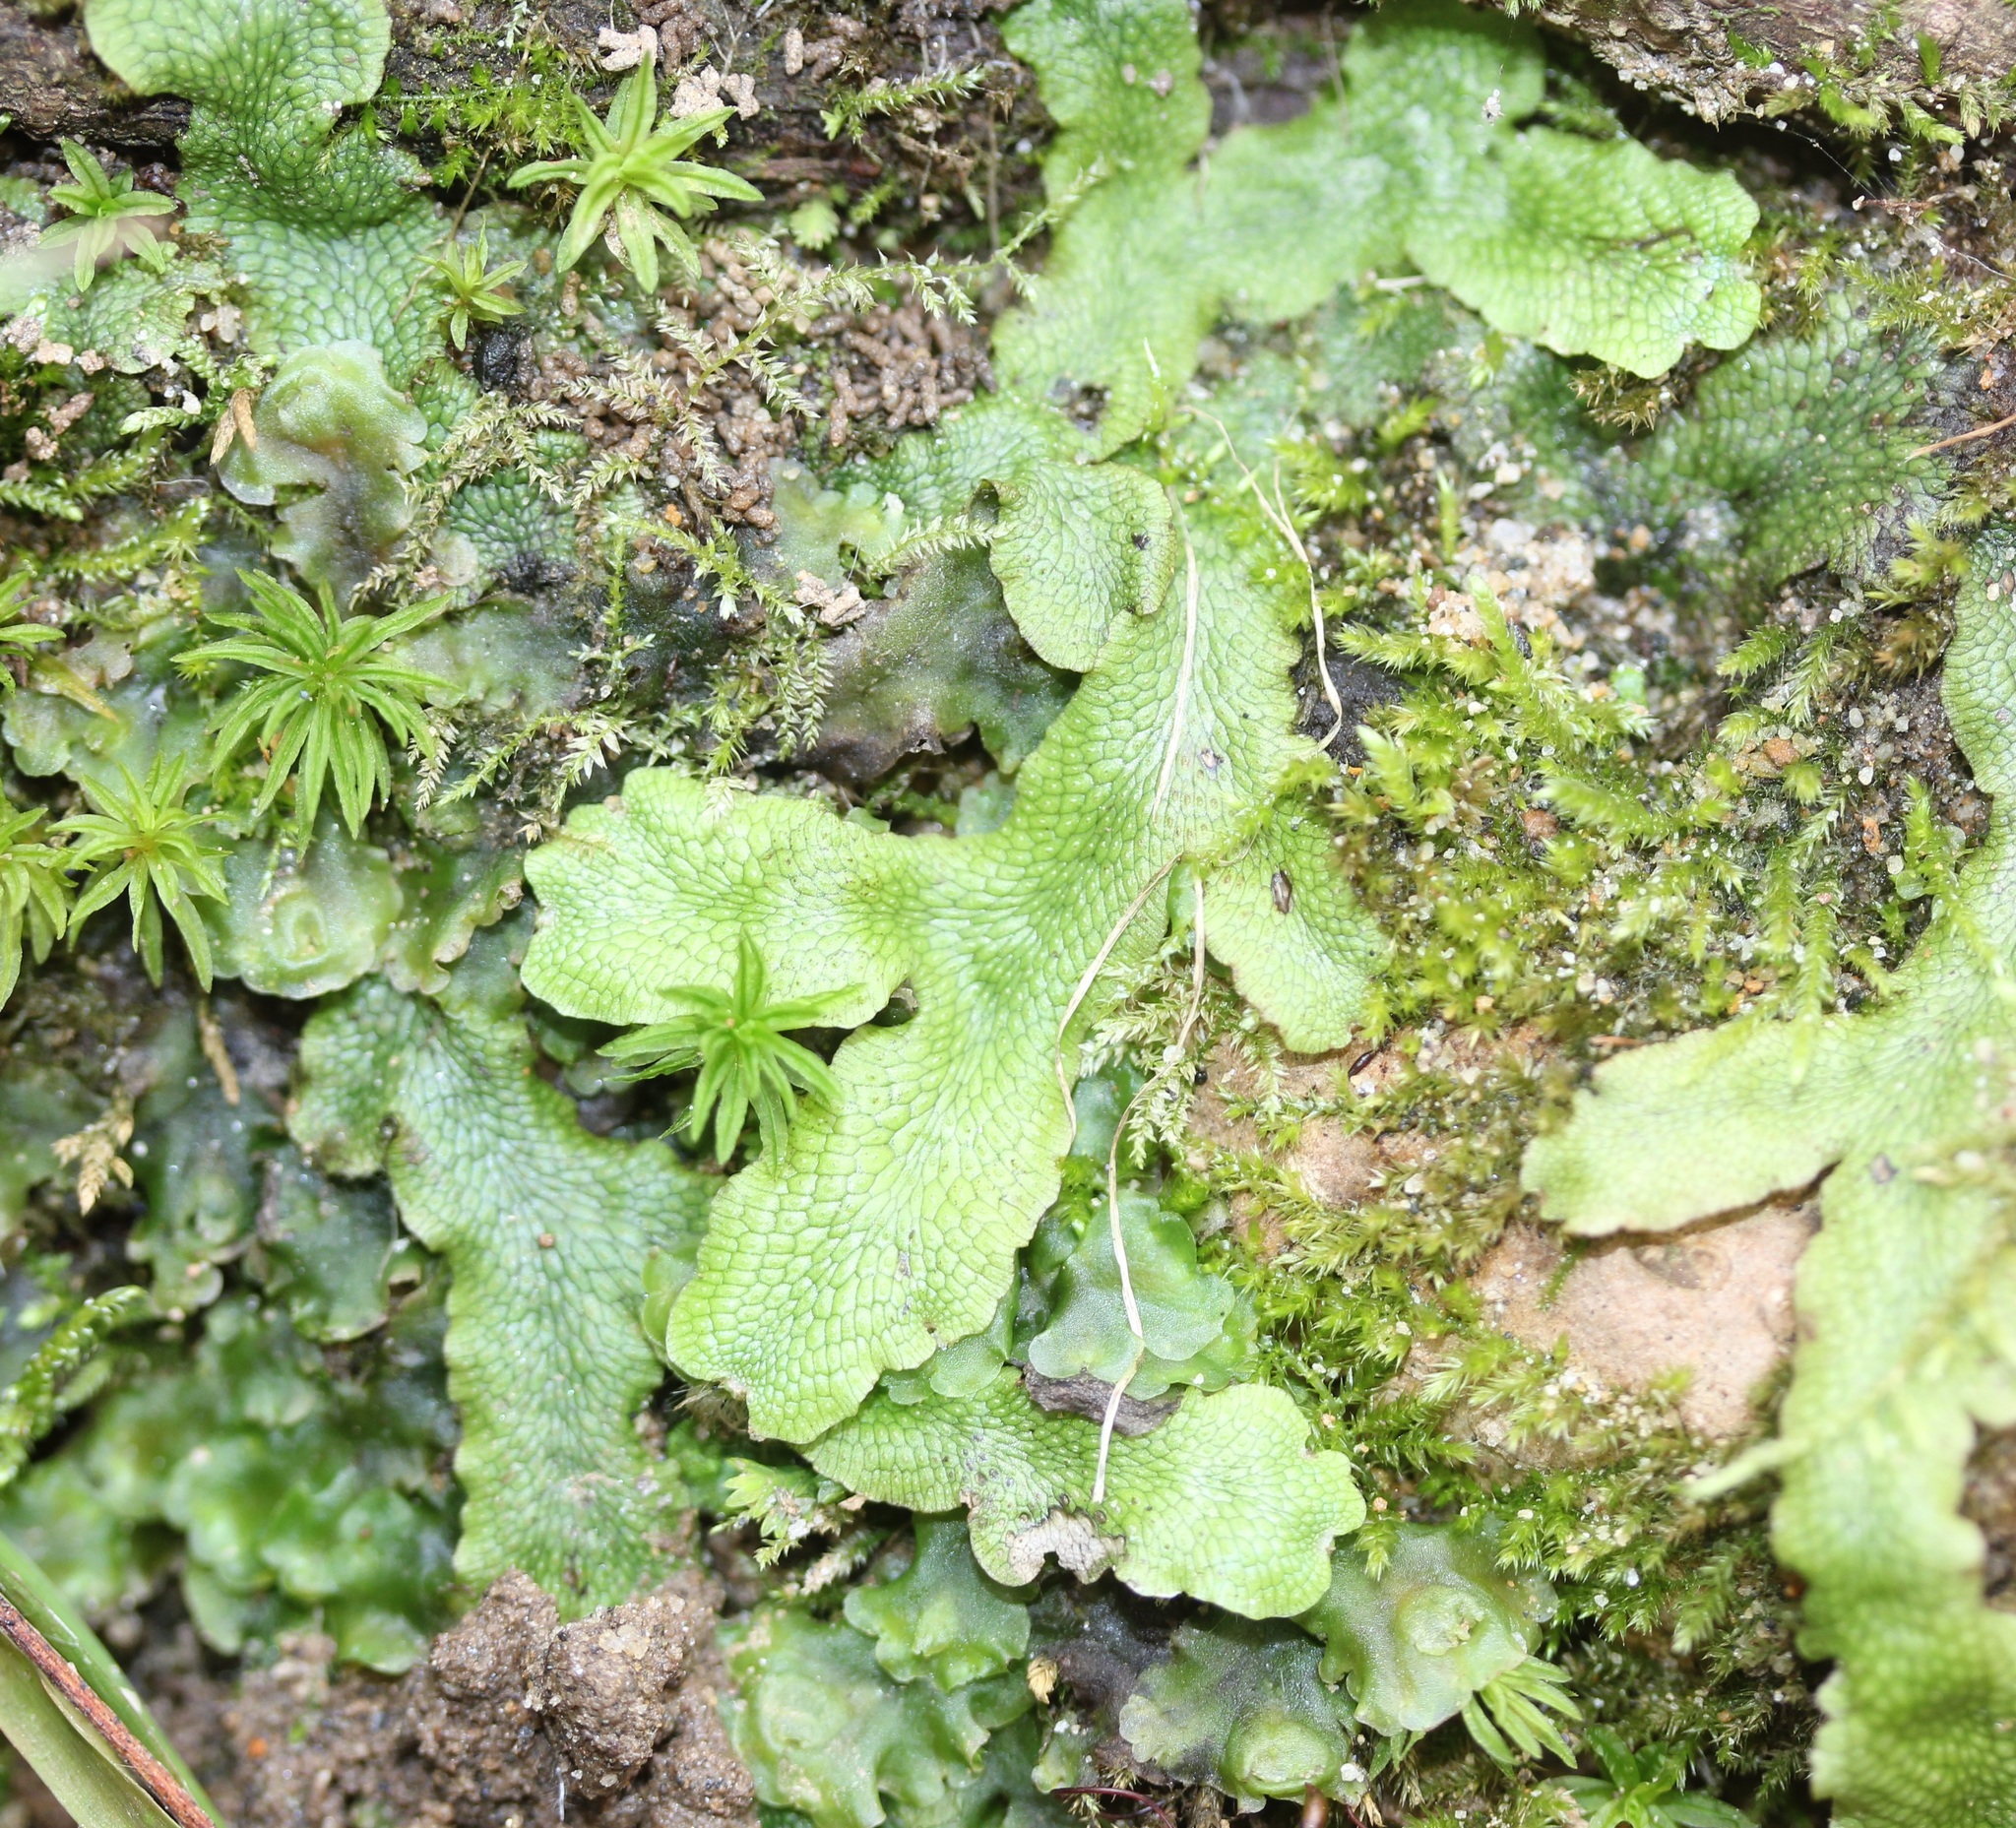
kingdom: Plantae
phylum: Marchantiophyta
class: Marchantiopsida
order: Marchantiales
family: Conocephalaceae
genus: Conocephalum
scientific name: Conocephalum salebrosum
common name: Cat-tongue liverwort
